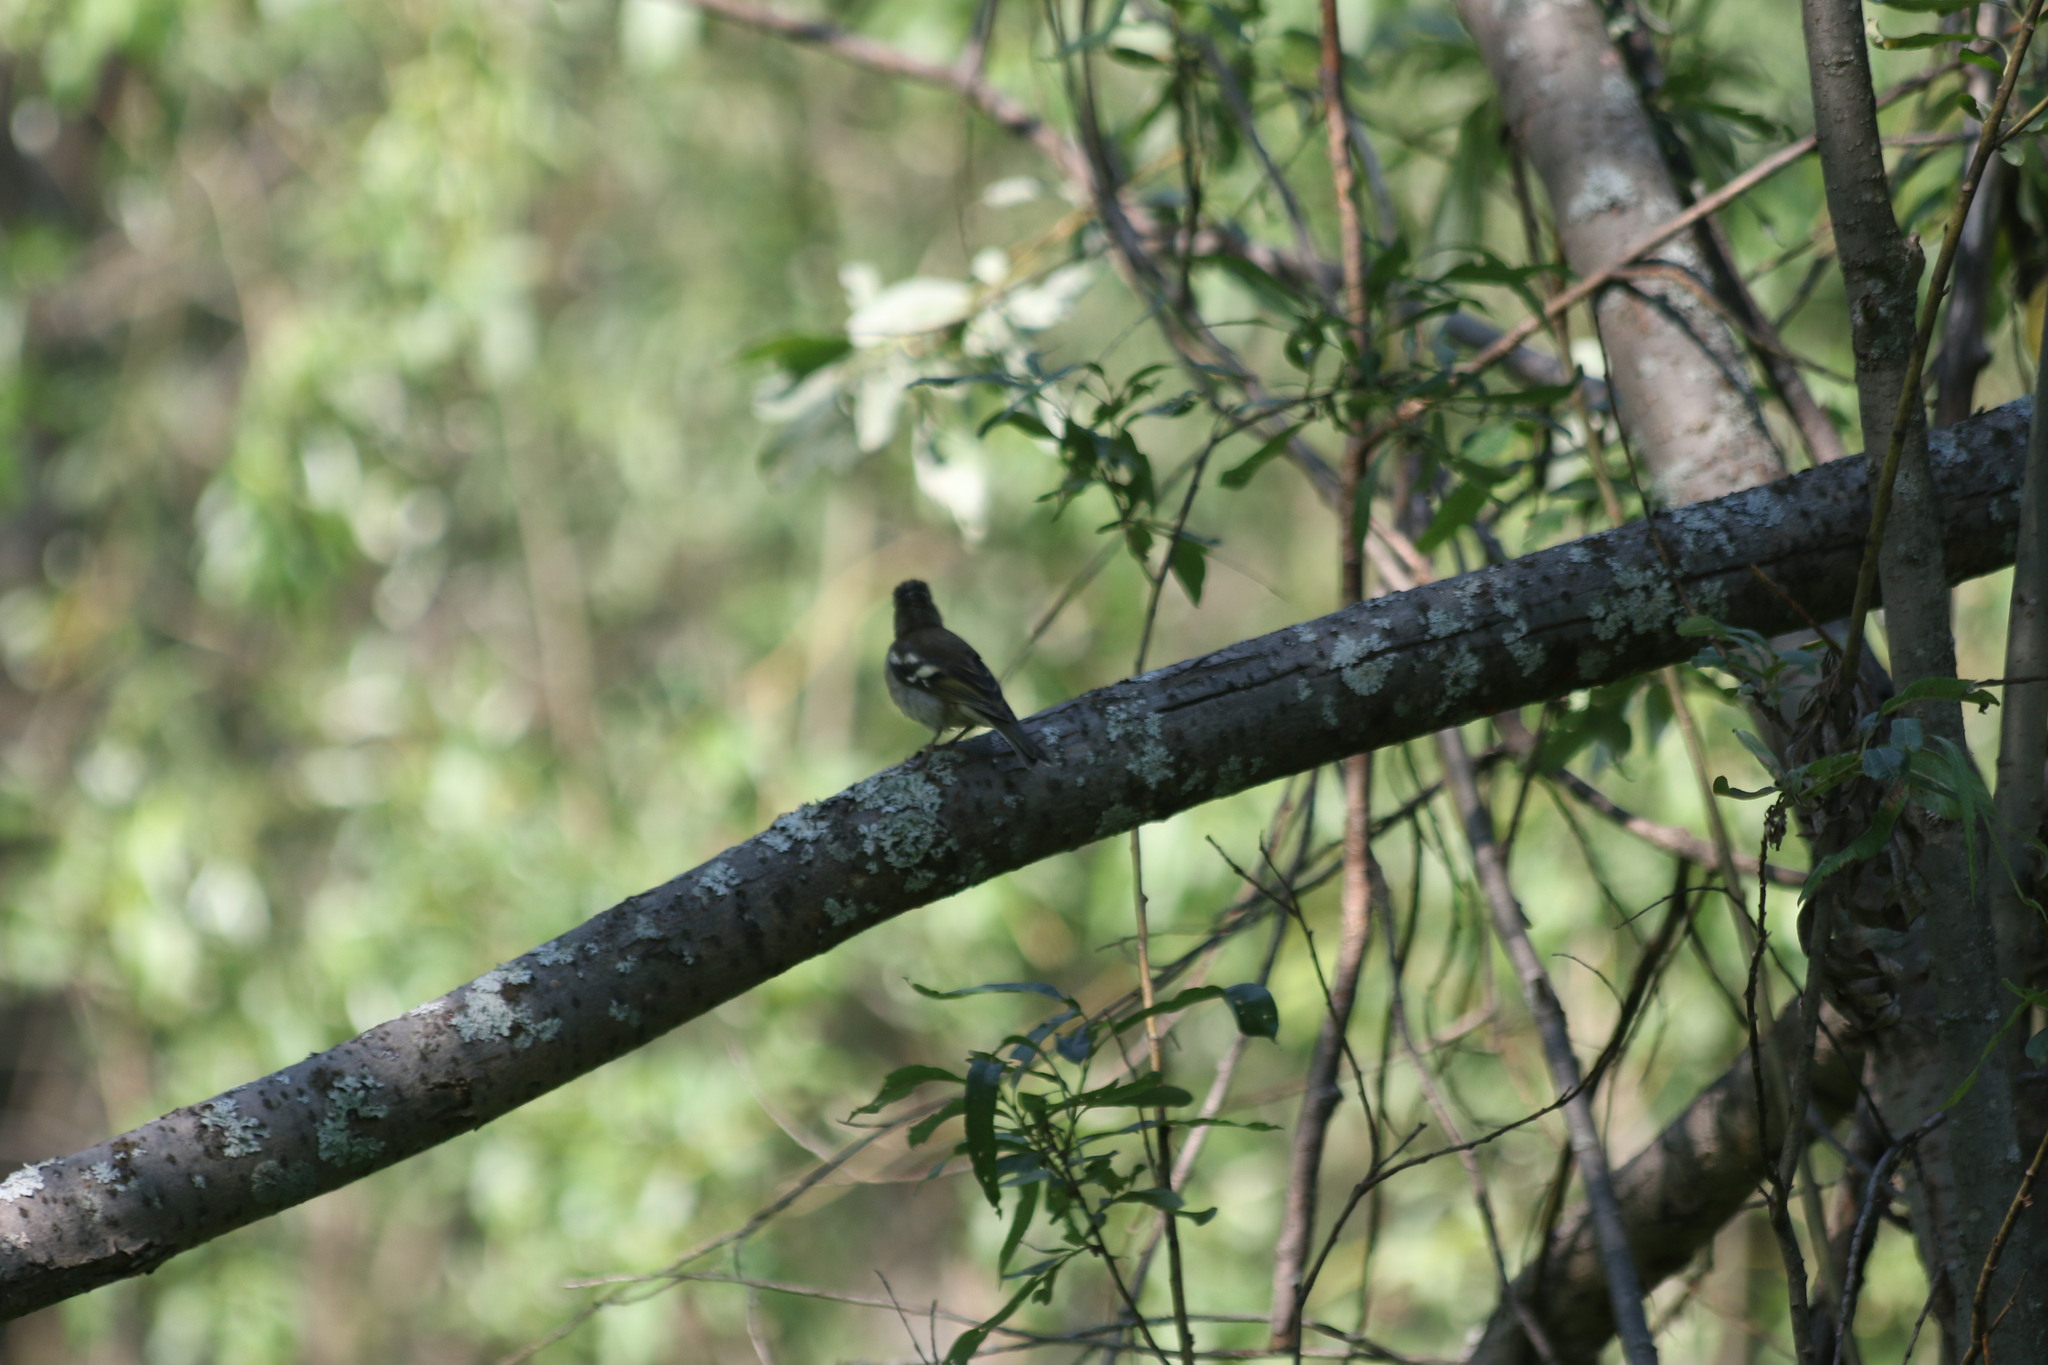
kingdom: Animalia
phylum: Chordata
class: Aves
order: Passeriformes
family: Fringillidae
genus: Fringilla
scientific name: Fringilla coelebs
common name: Common chaffinch
